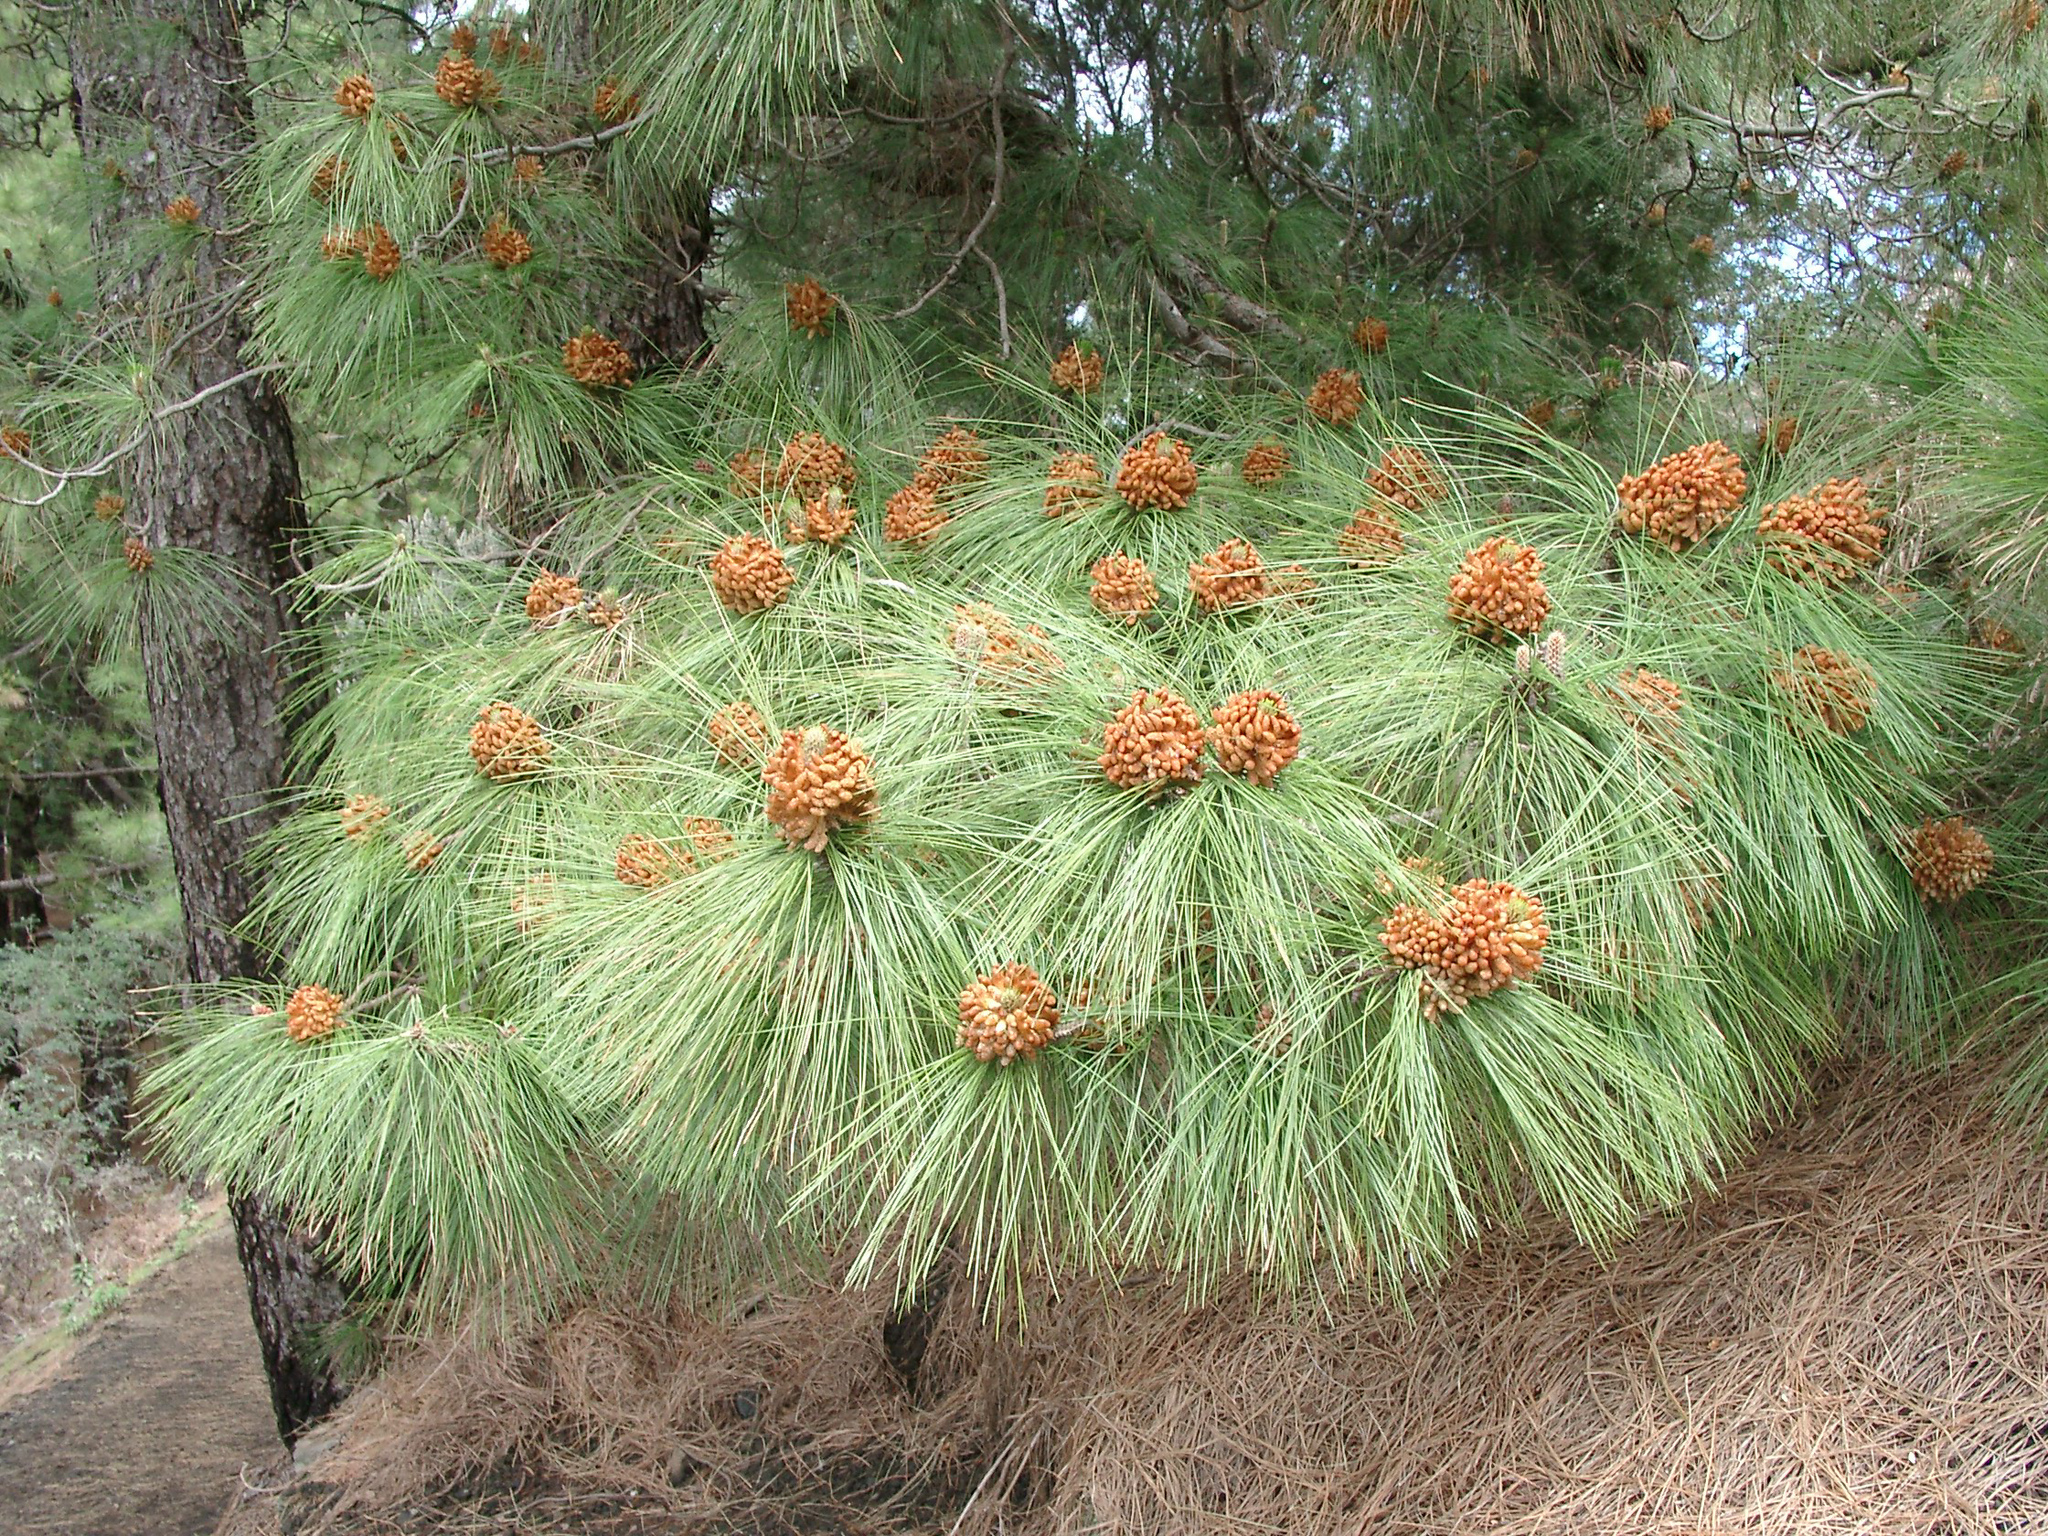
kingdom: Plantae
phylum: Tracheophyta
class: Pinopsida
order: Pinales
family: Pinaceae
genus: Pinus
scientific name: Pinus canariensis
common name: Canary islands pine
